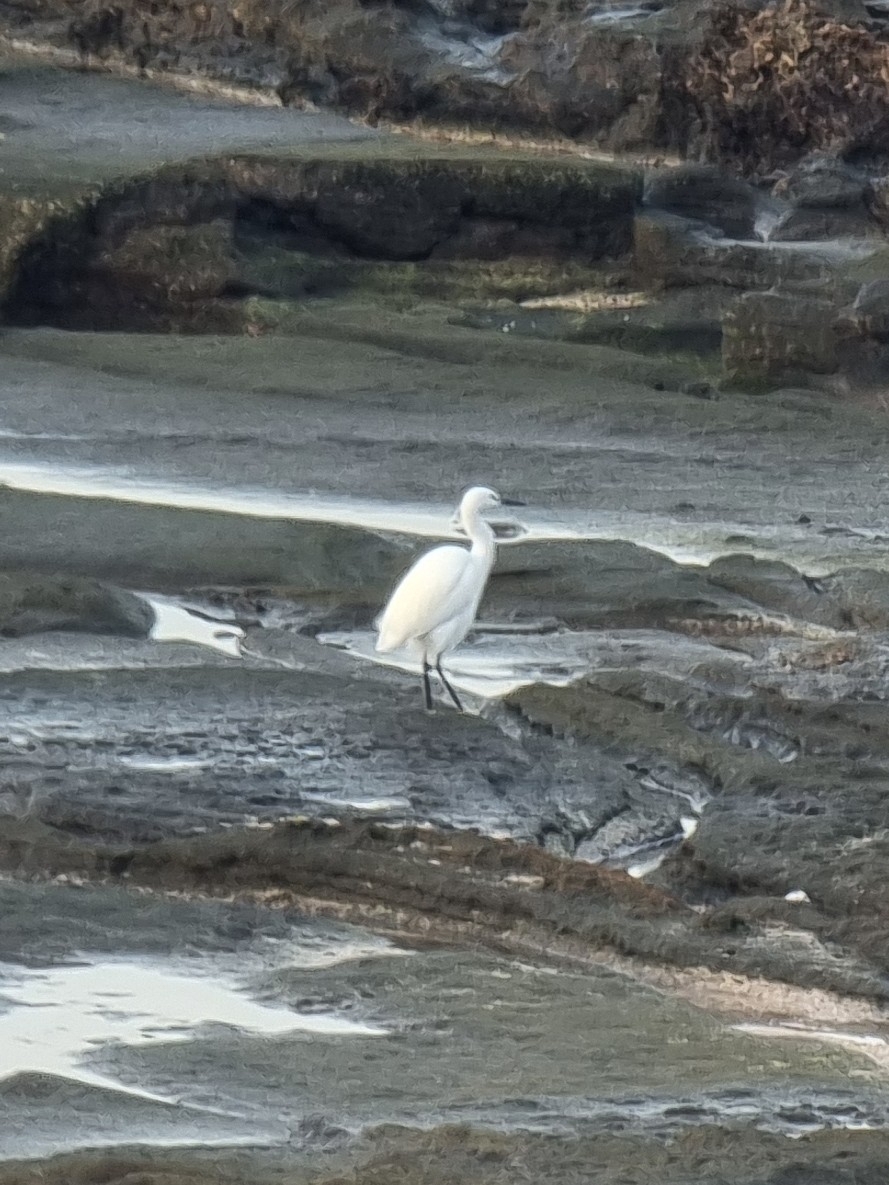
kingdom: Animalia
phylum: Chordata
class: Aves
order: Pelecaniformes
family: Ardeidae
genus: Egretta
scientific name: Egretta garzetta
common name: Little egret
